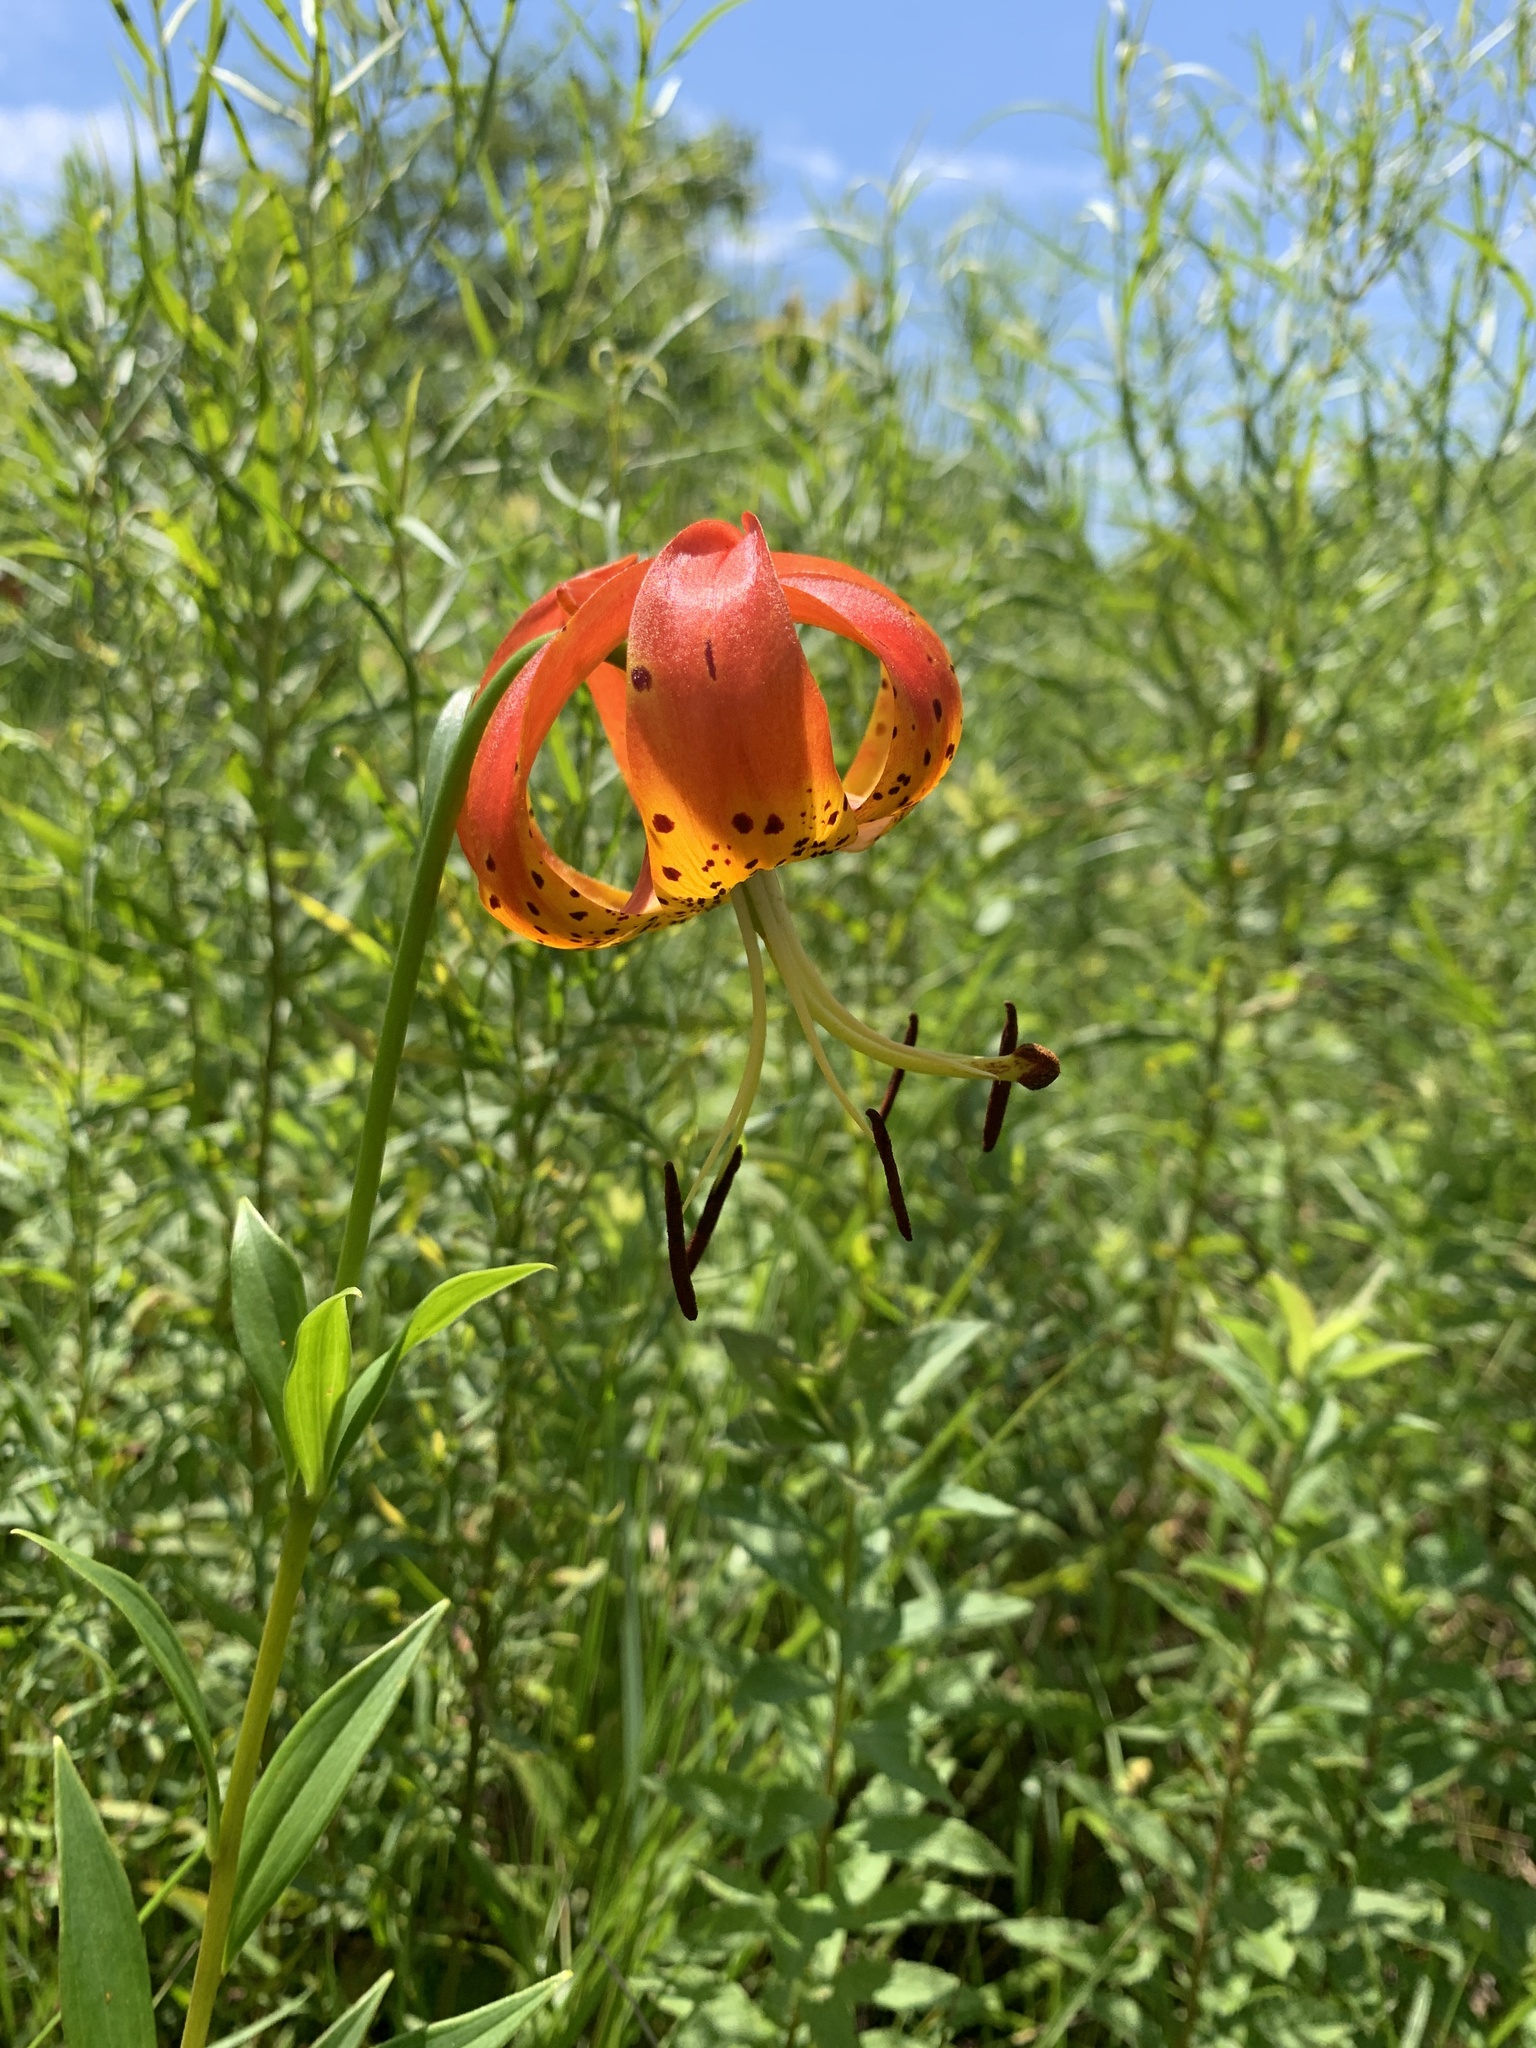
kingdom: Plantae
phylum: Tracheophyta
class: Liliopsida
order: Liliales
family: Liliaceae
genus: Lilium
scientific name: Lilium superbum
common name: American turk's-cap lily
